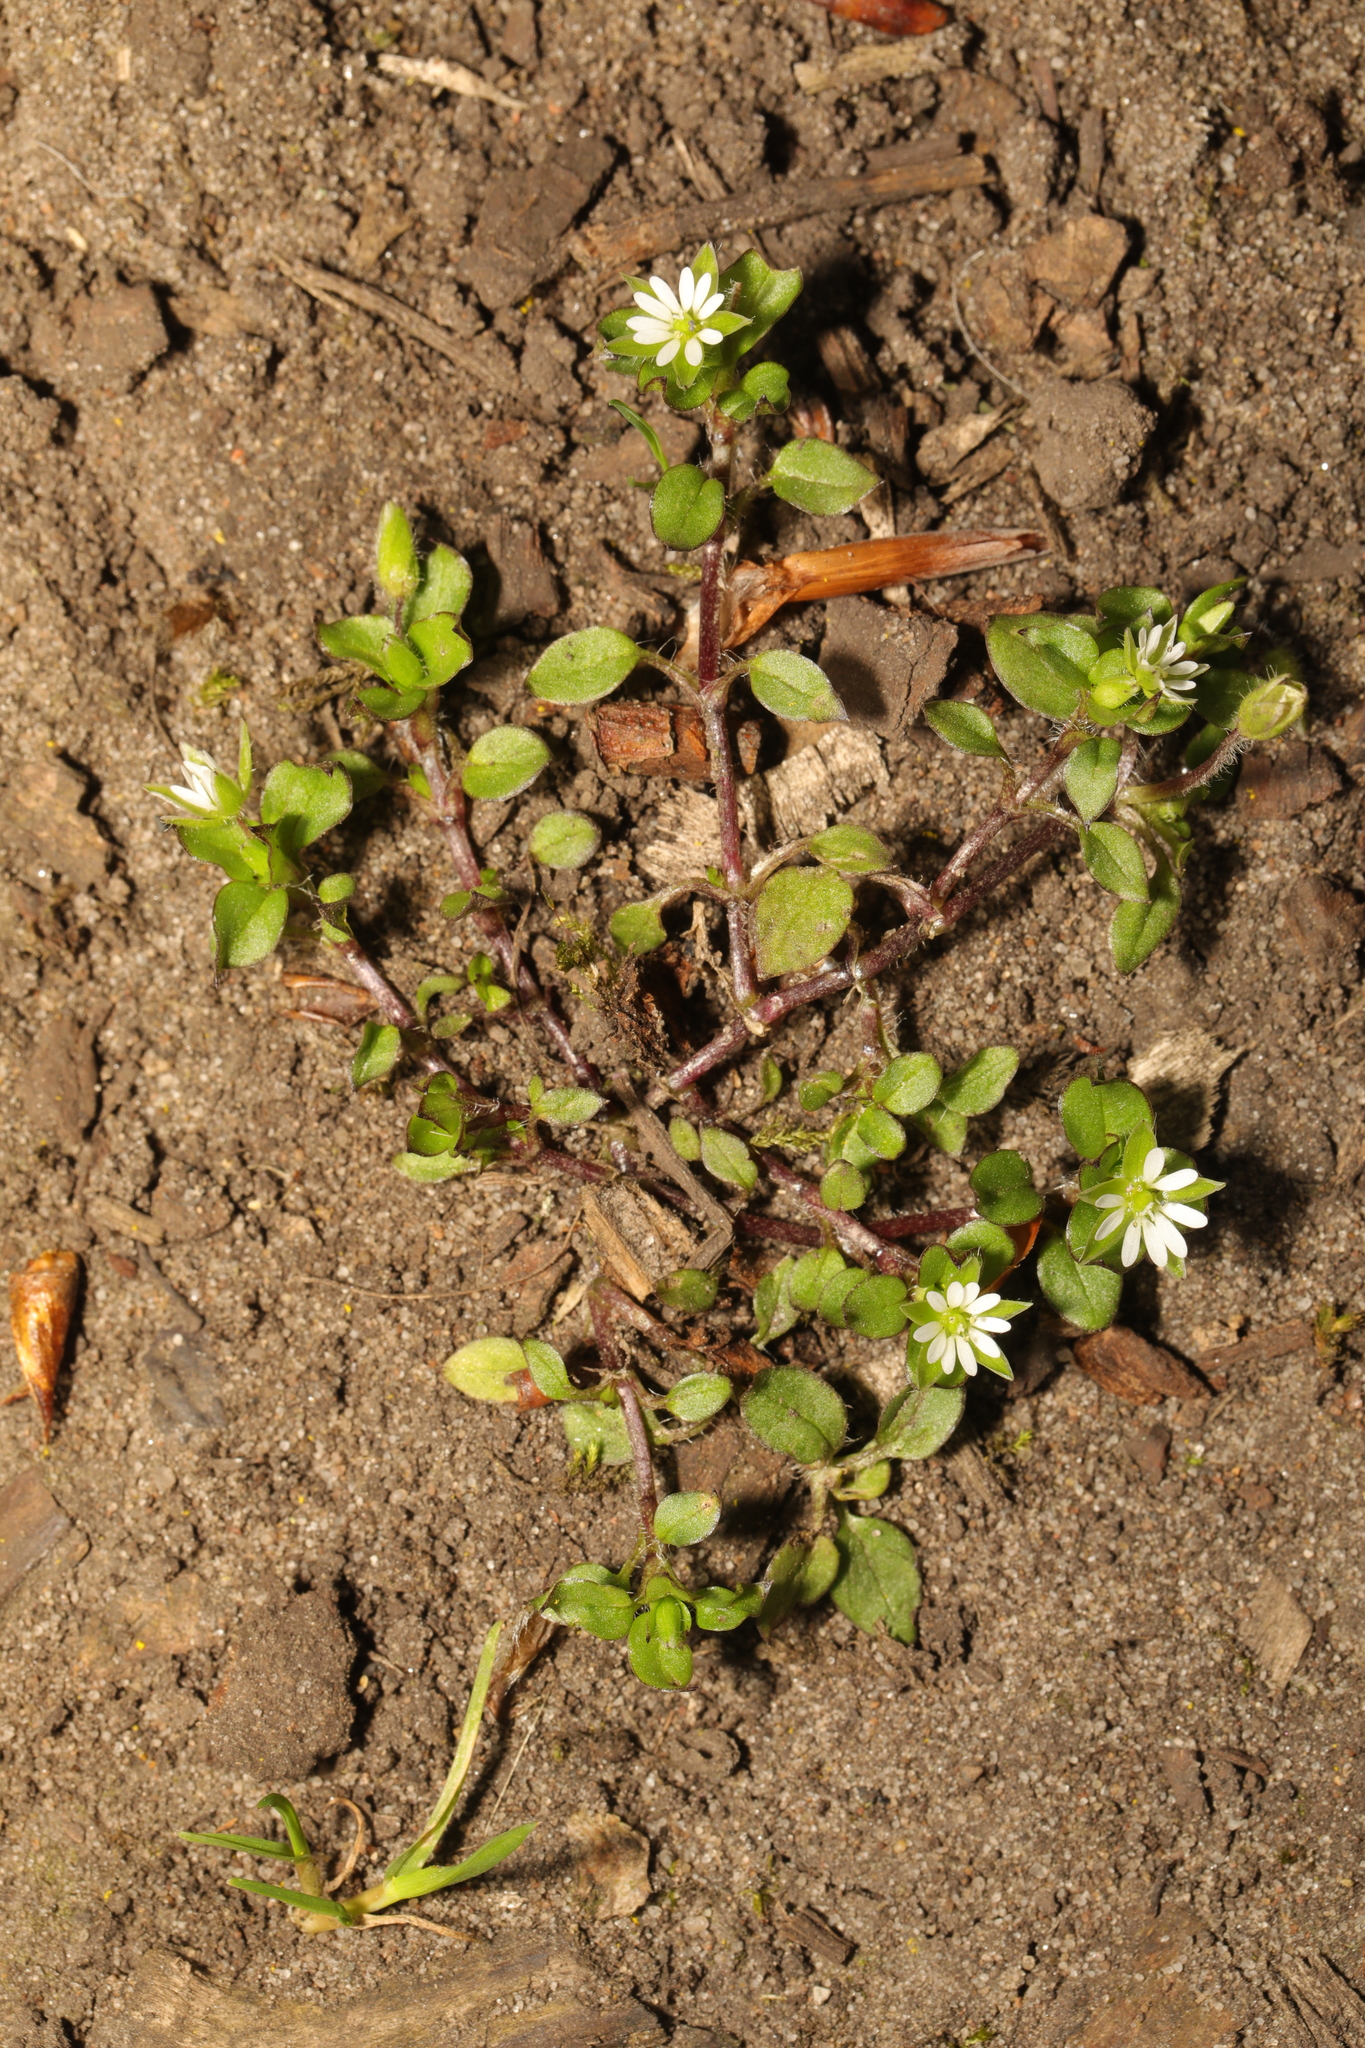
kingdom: Plantae
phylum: Tracheophyta
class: Magnoliopsida
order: Caryophyllales
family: Caryophyllaceae
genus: Stellaria
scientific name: Stellaria media
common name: Common chickweed
